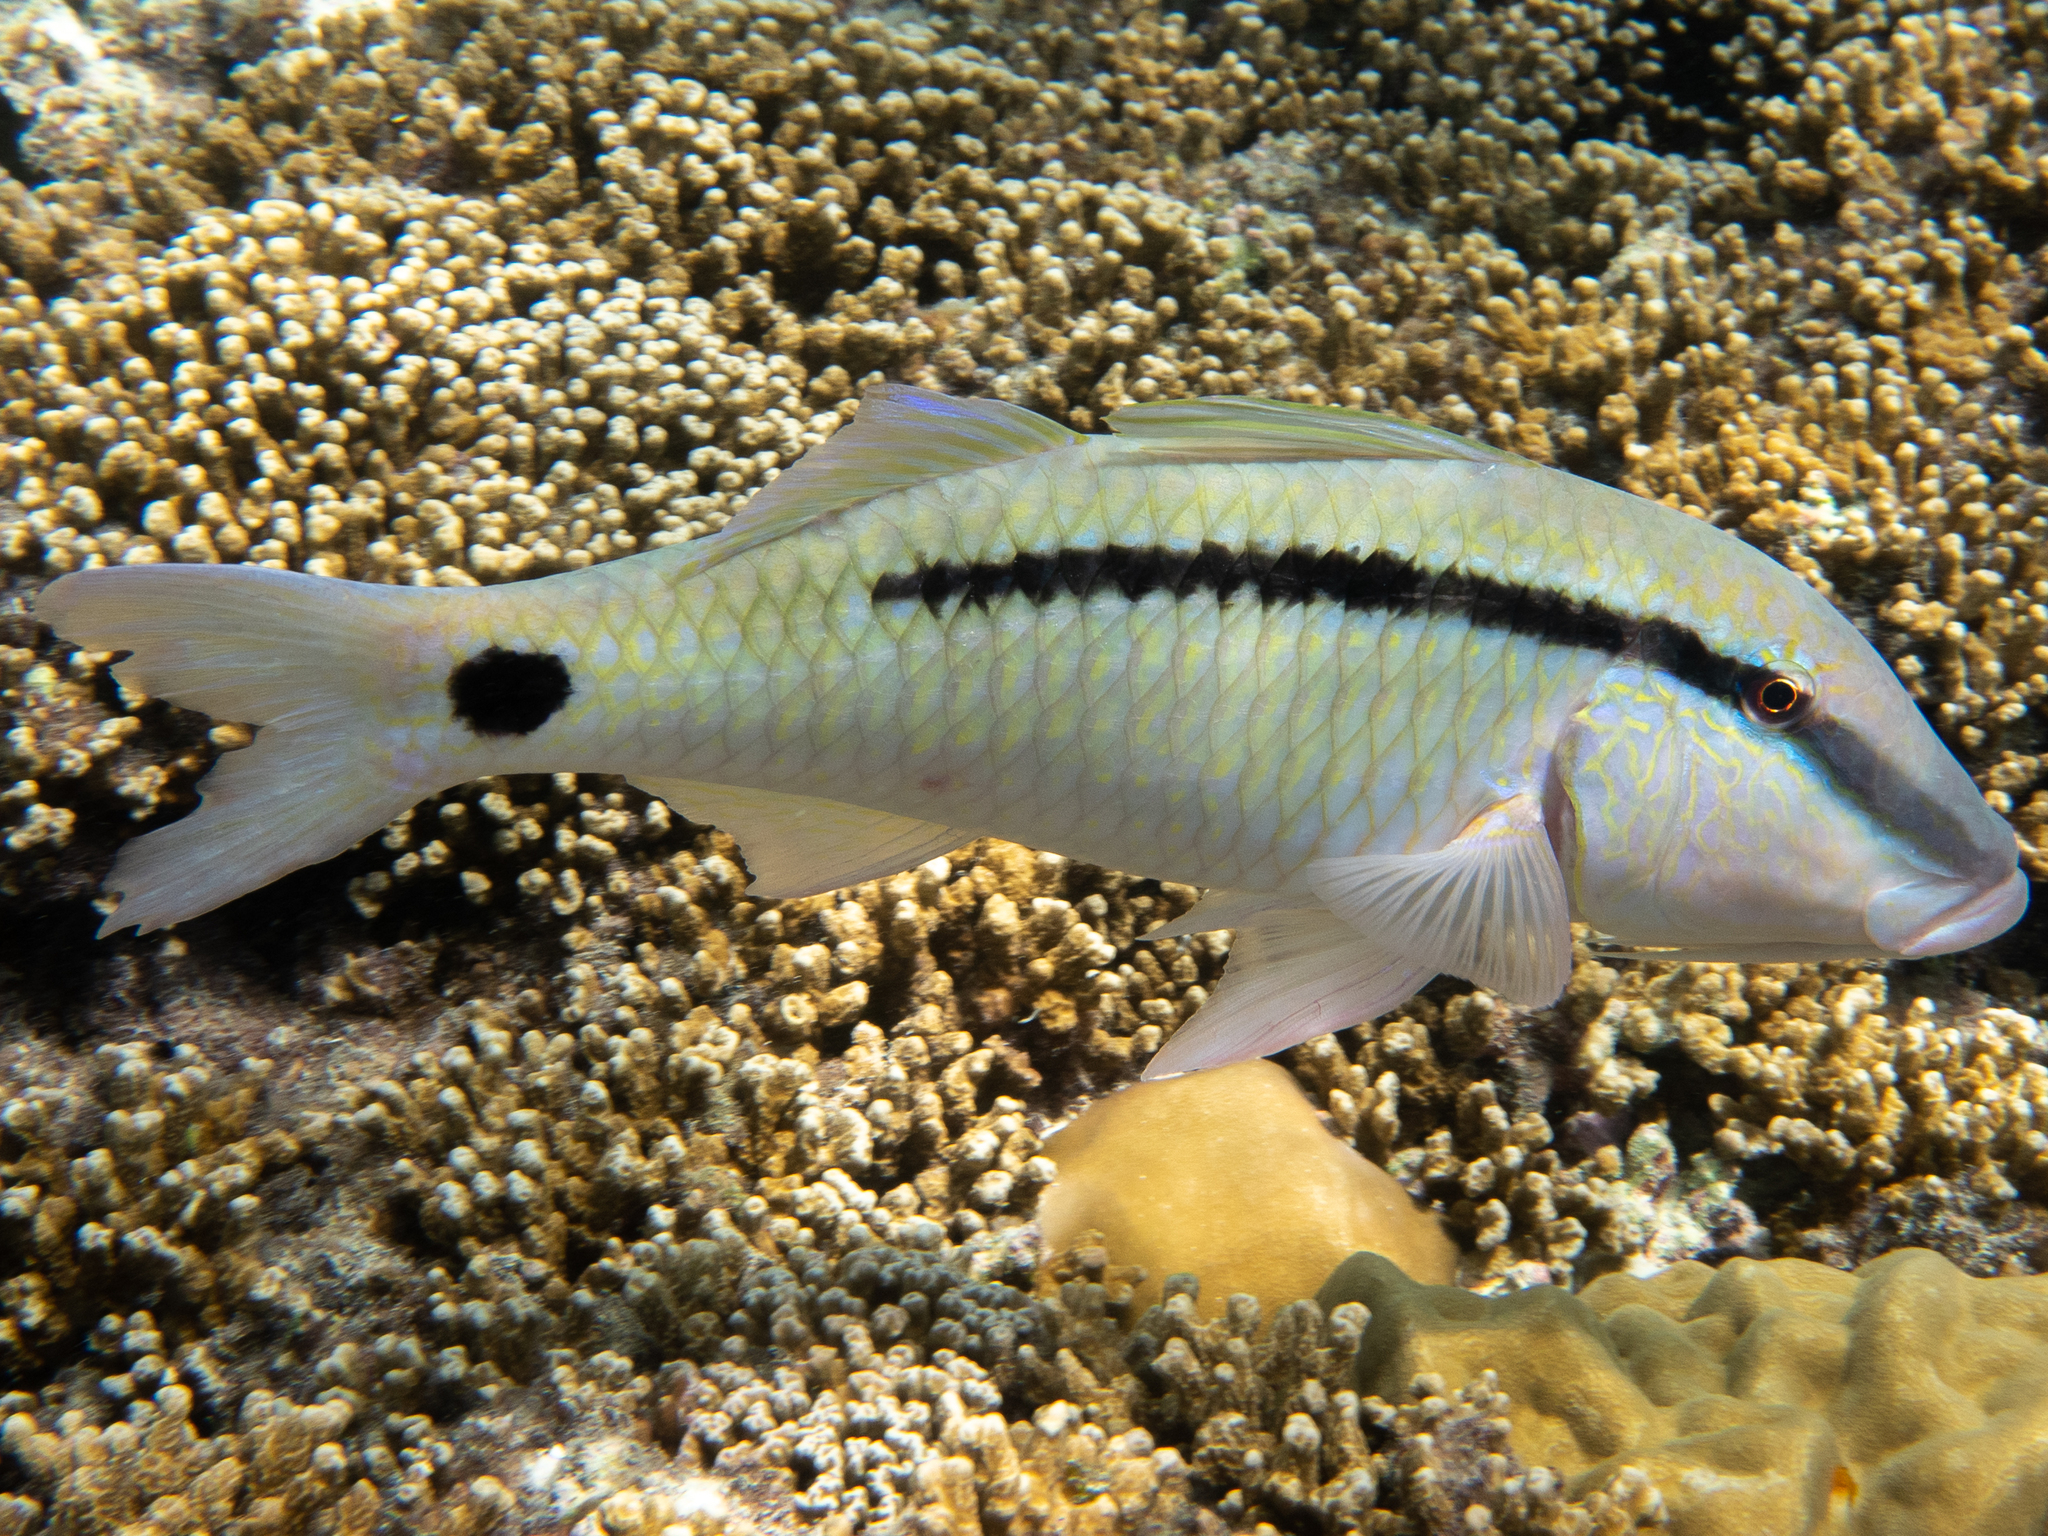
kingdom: Animalia
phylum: Chordata
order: Perciformes
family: Mullidae
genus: Parupeneus
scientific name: Parupeneus barberinus
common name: Dash-and-dot goatfish
